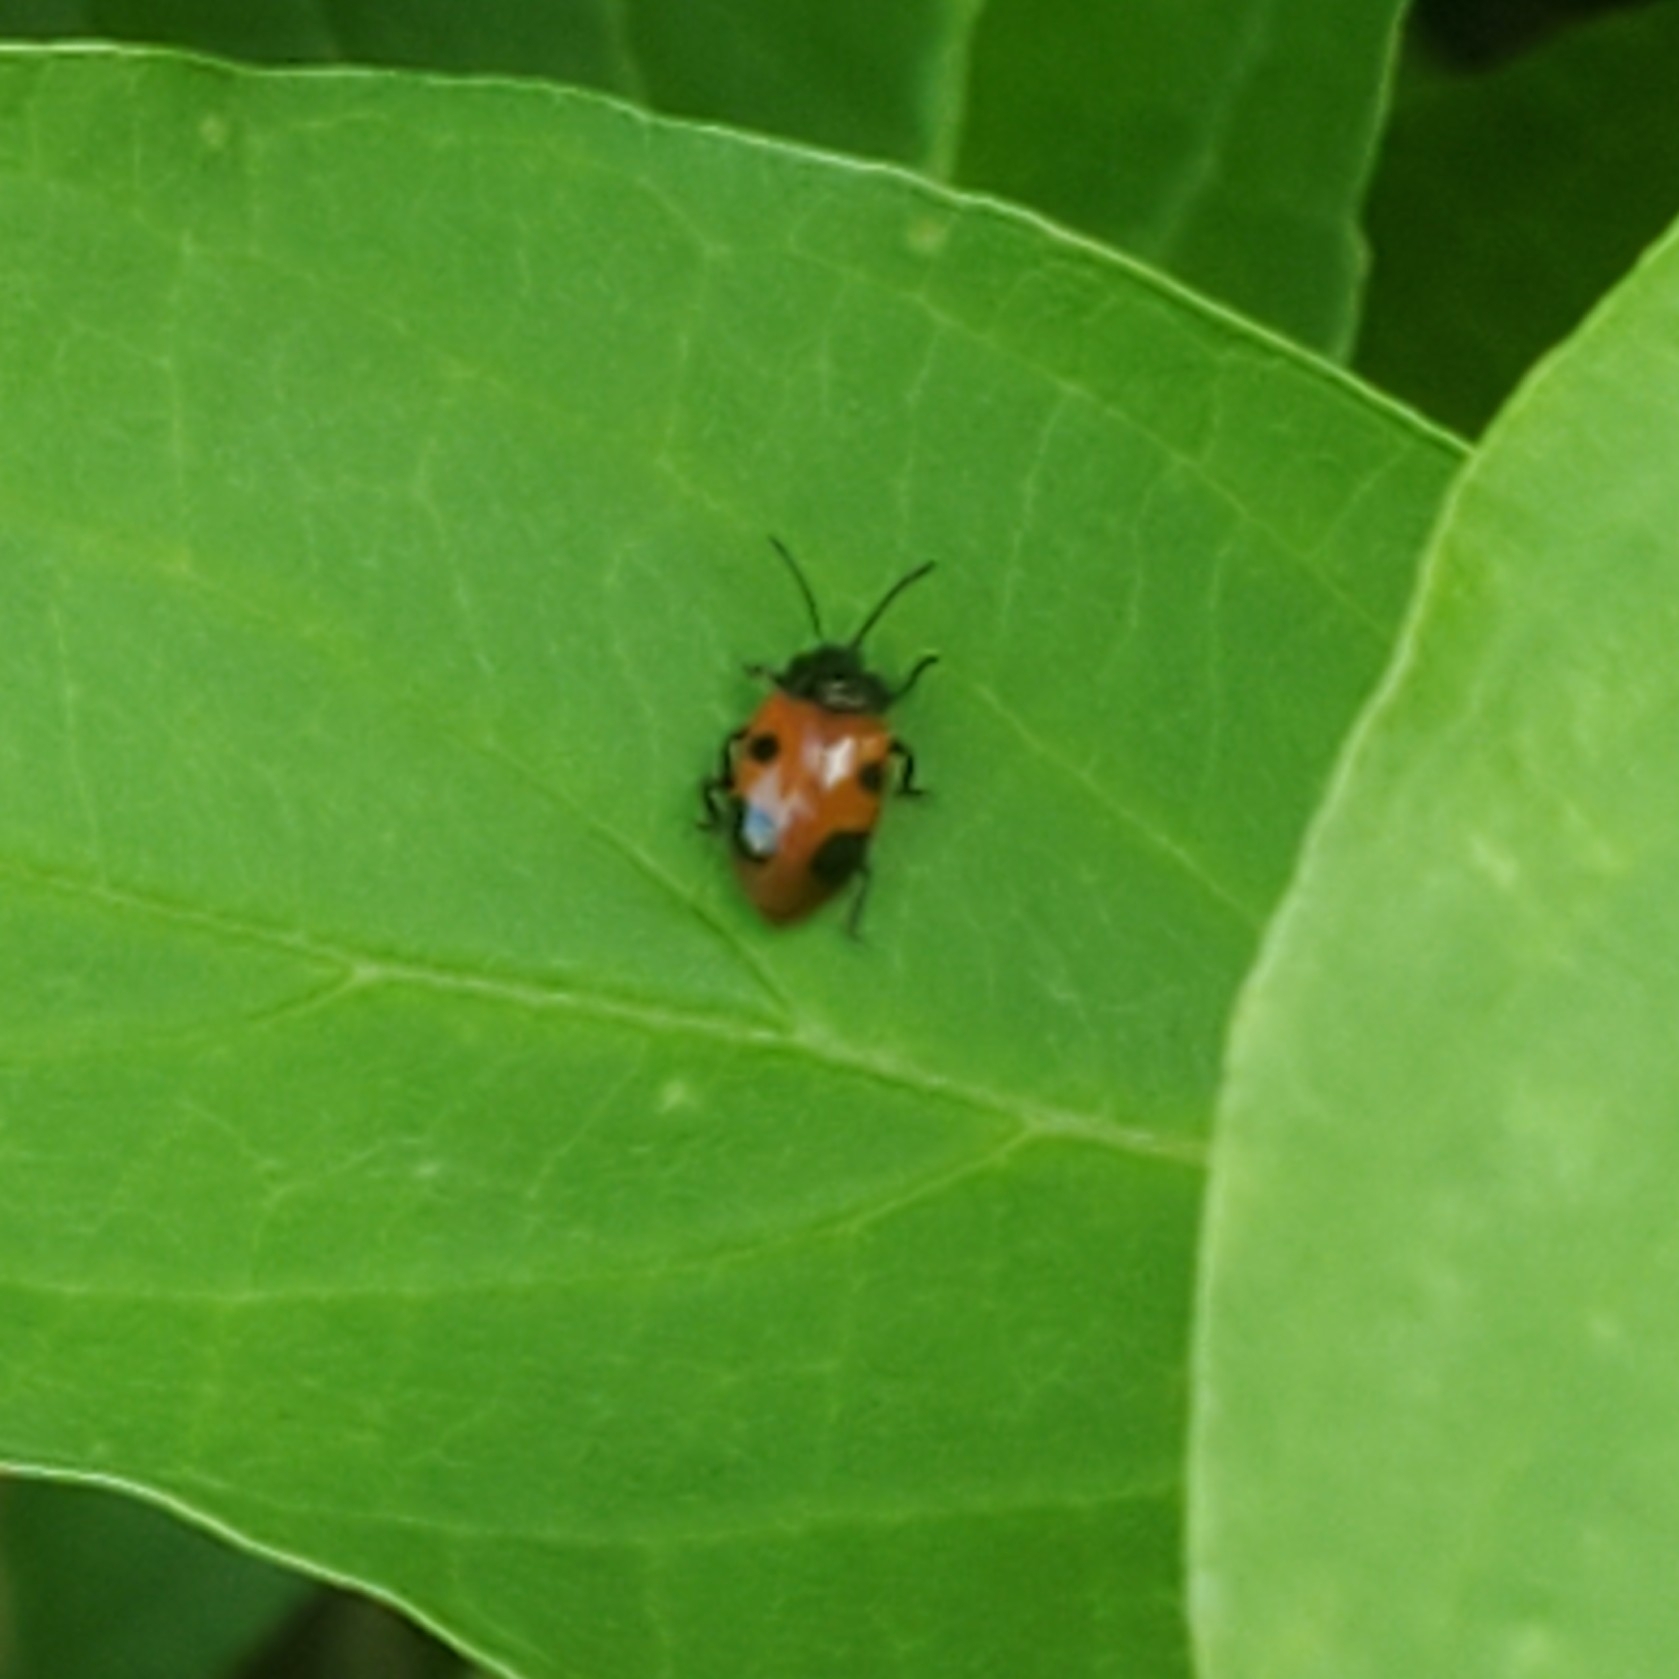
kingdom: Animalia
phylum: Arthropoda
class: Insecta
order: Coleoptera
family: Endomychidae
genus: Endomychus
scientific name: Endomychus biguttatus
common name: Handsome fungus beetle
